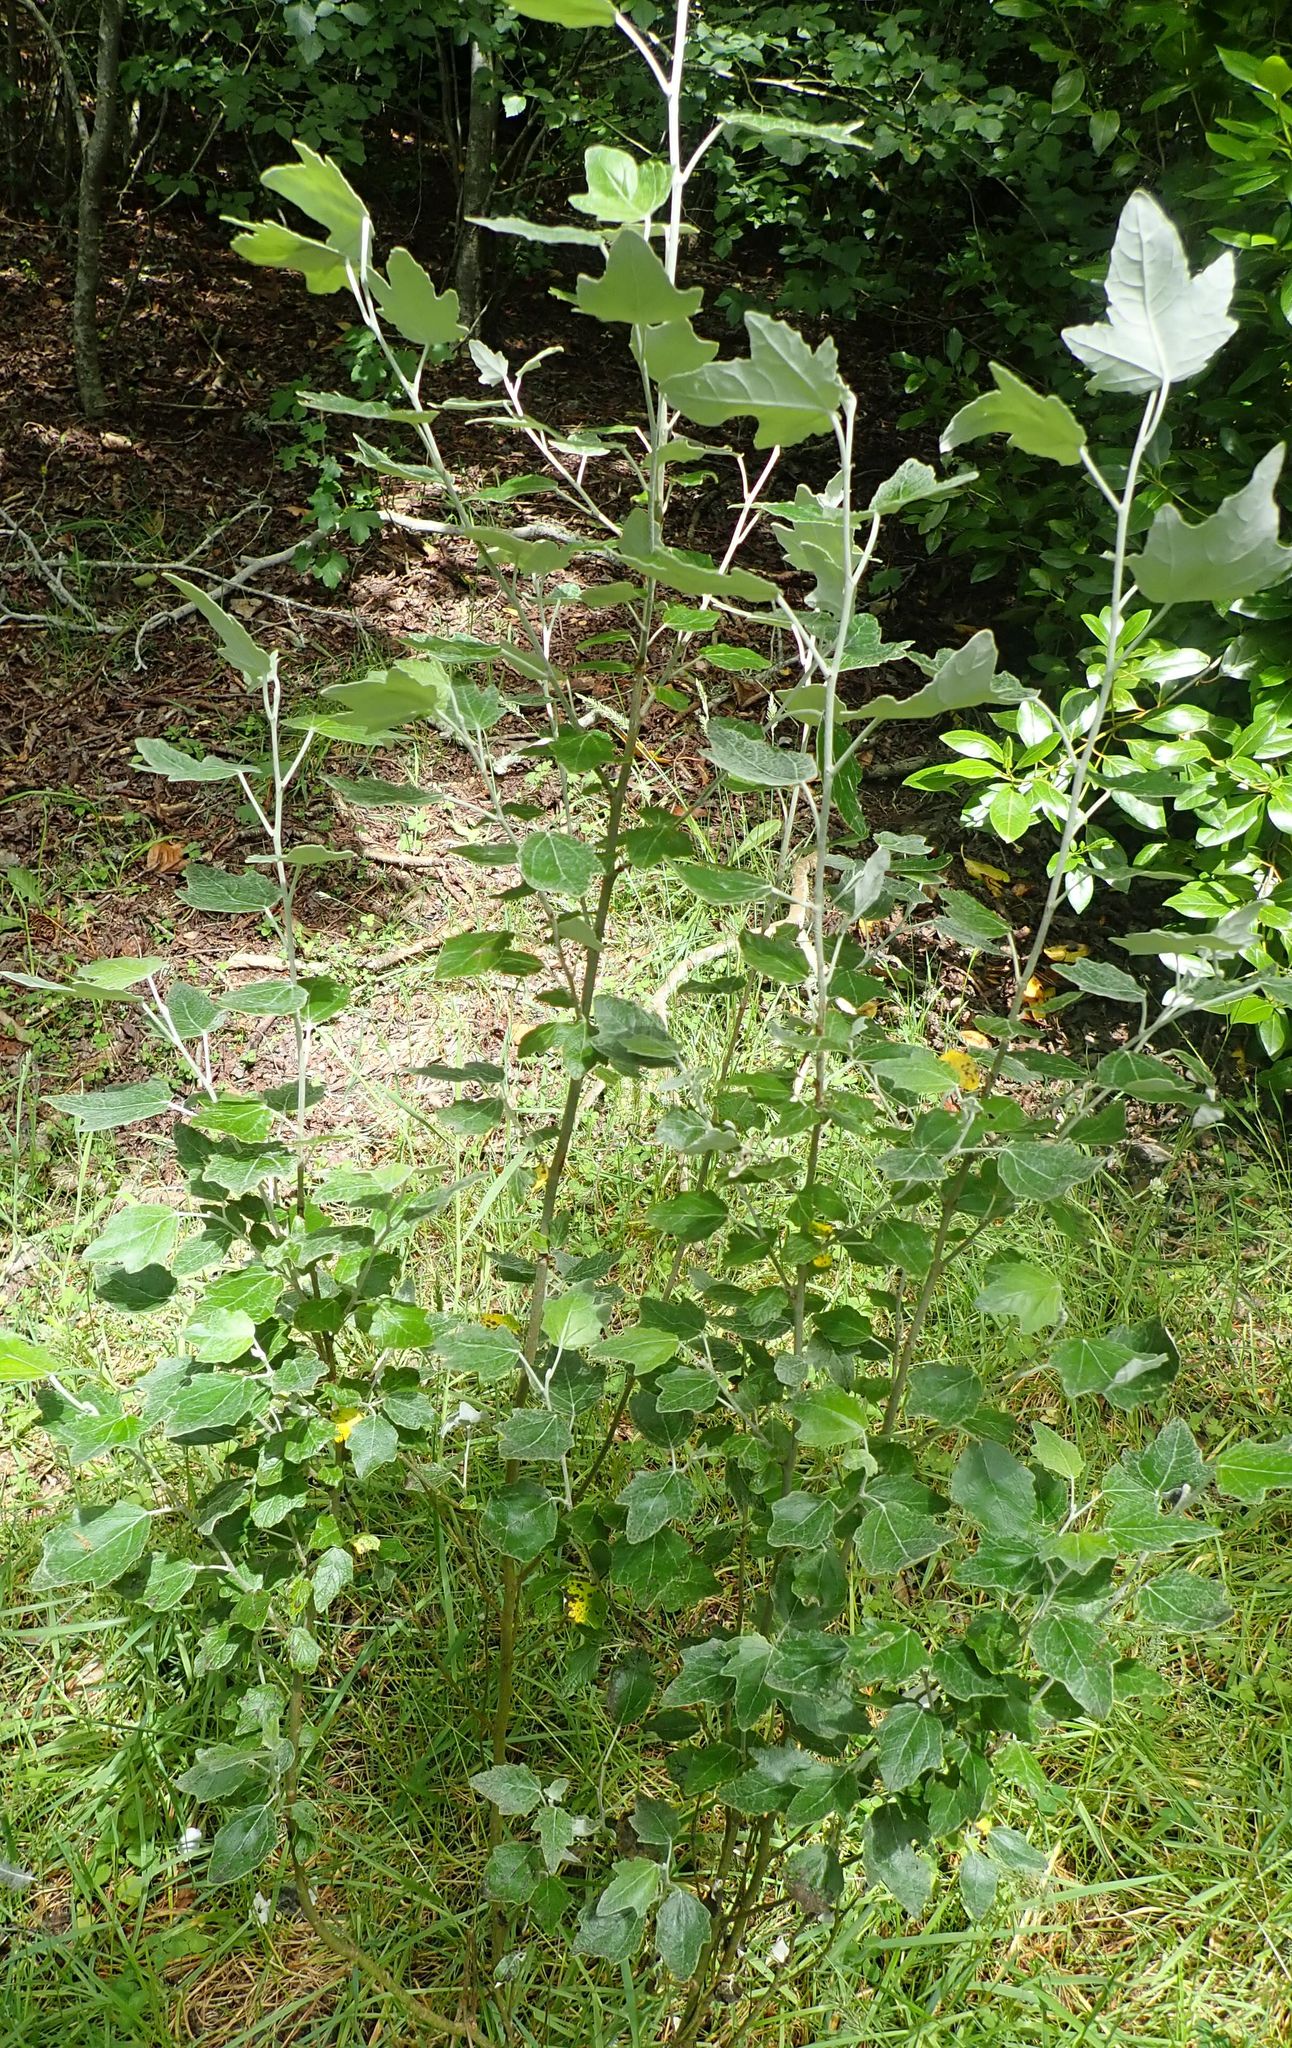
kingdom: Plantae
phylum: Tracheophyta
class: Magnoliopsida
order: Malpighiales
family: Salicaceae
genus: Populus
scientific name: Populus alba
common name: White poplar
